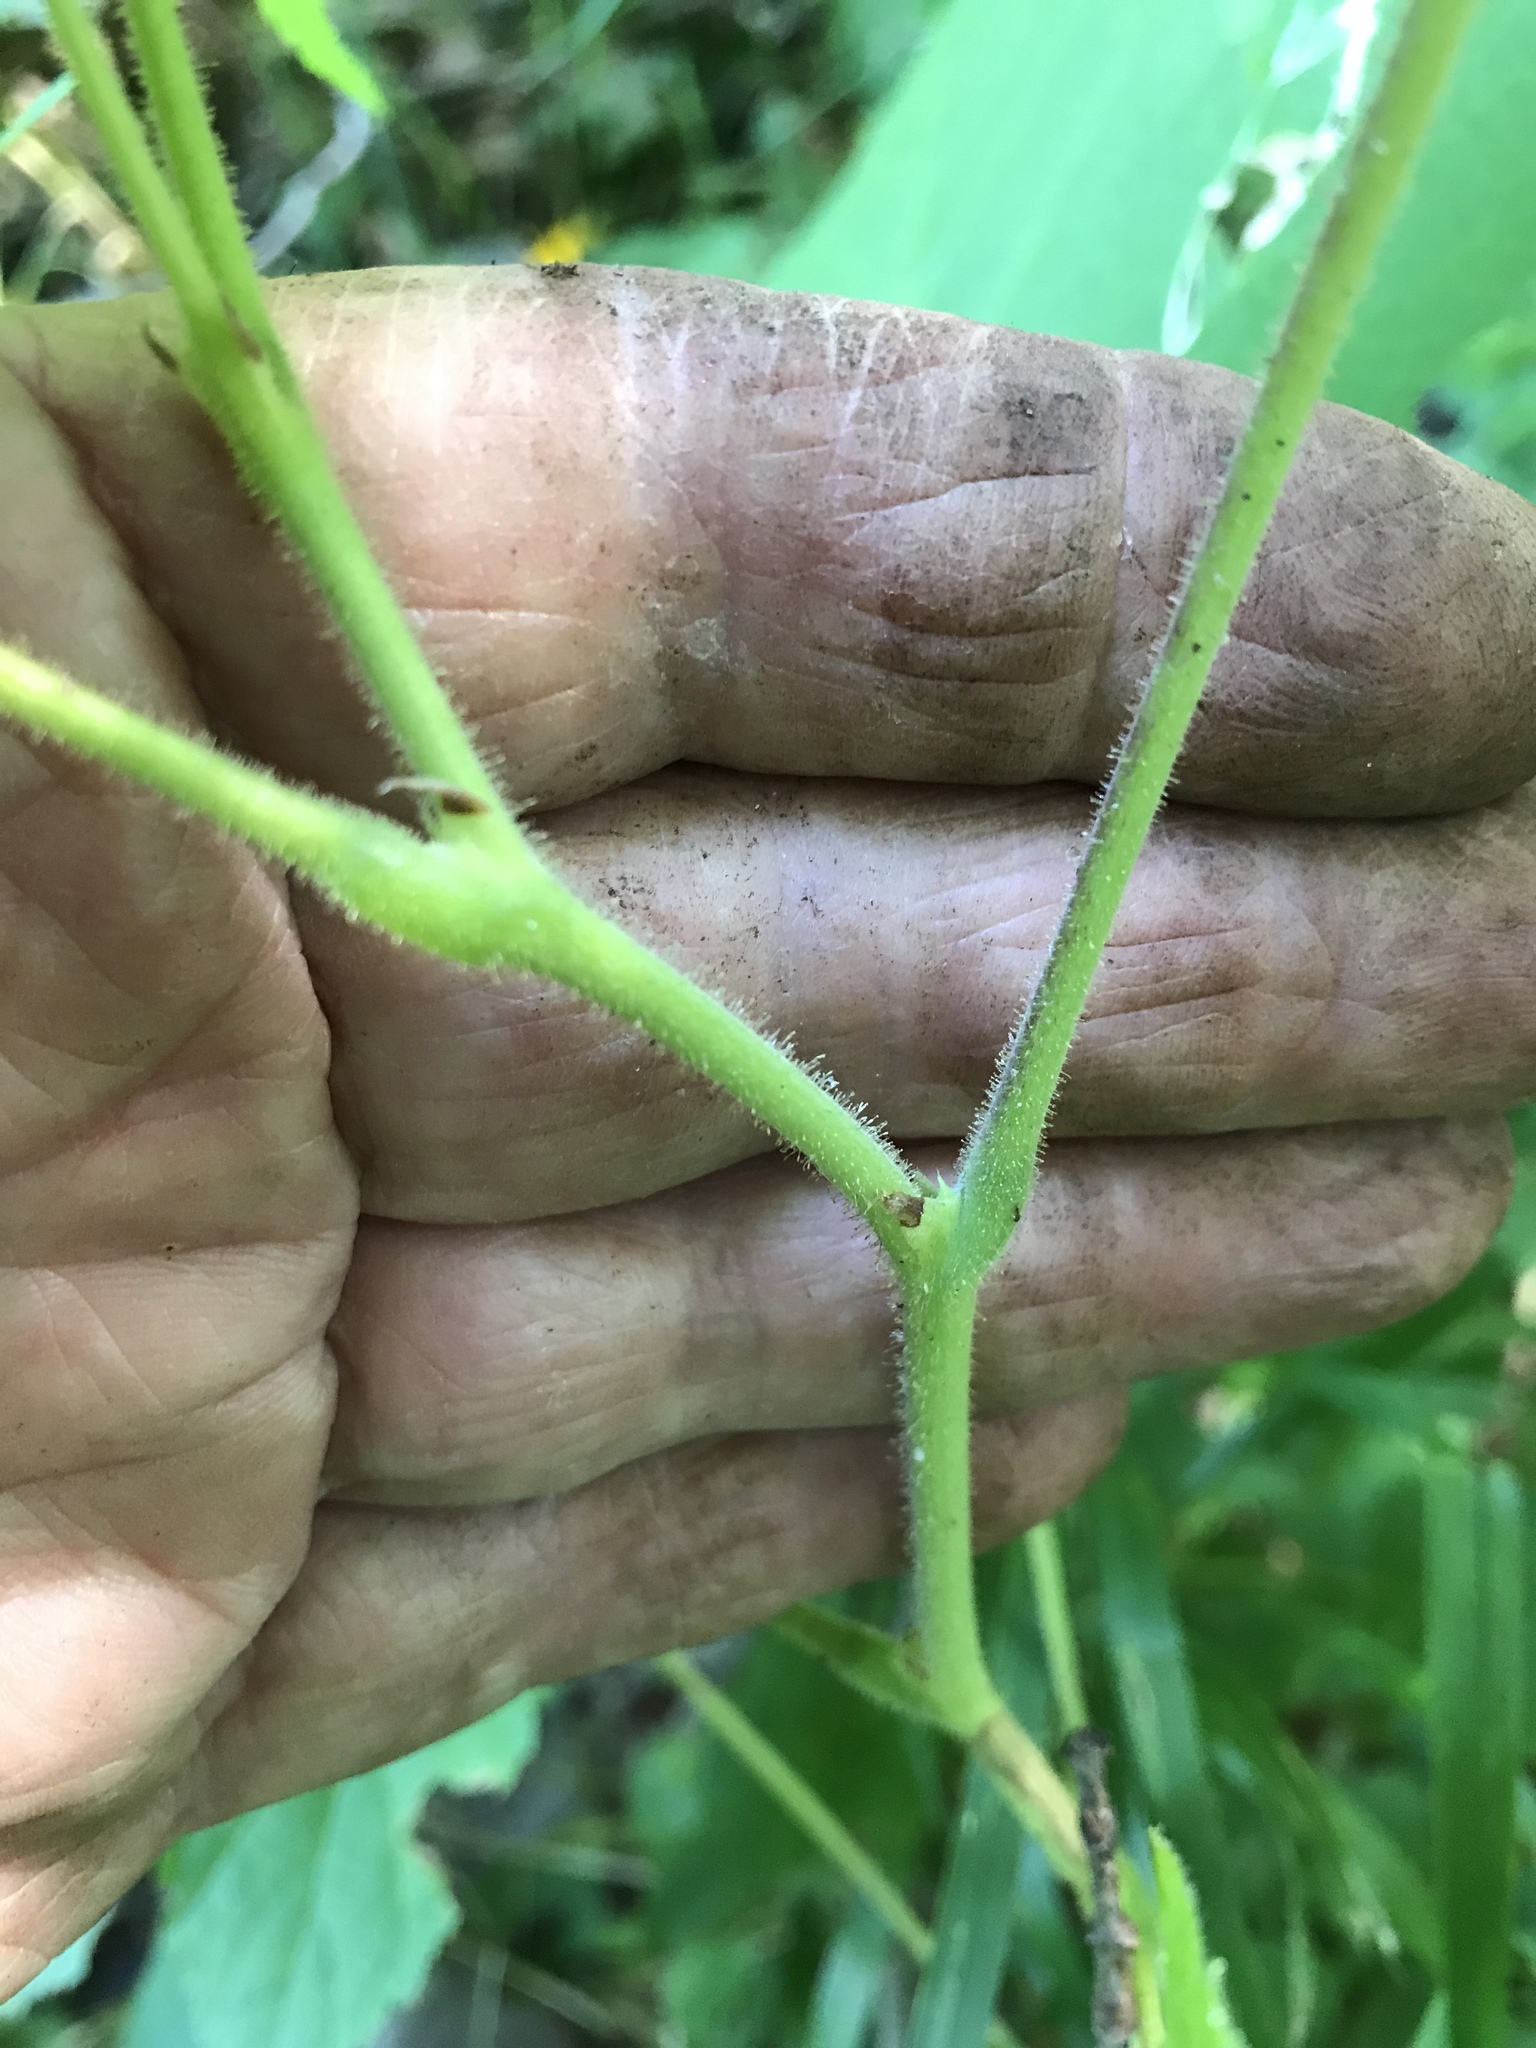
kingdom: Plantae
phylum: Tracheophyta
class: Magnoliopsida
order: Rosales
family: Rosaceae
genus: Rubus
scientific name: Rubus odoratus
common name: Purple-flowered raspberry
